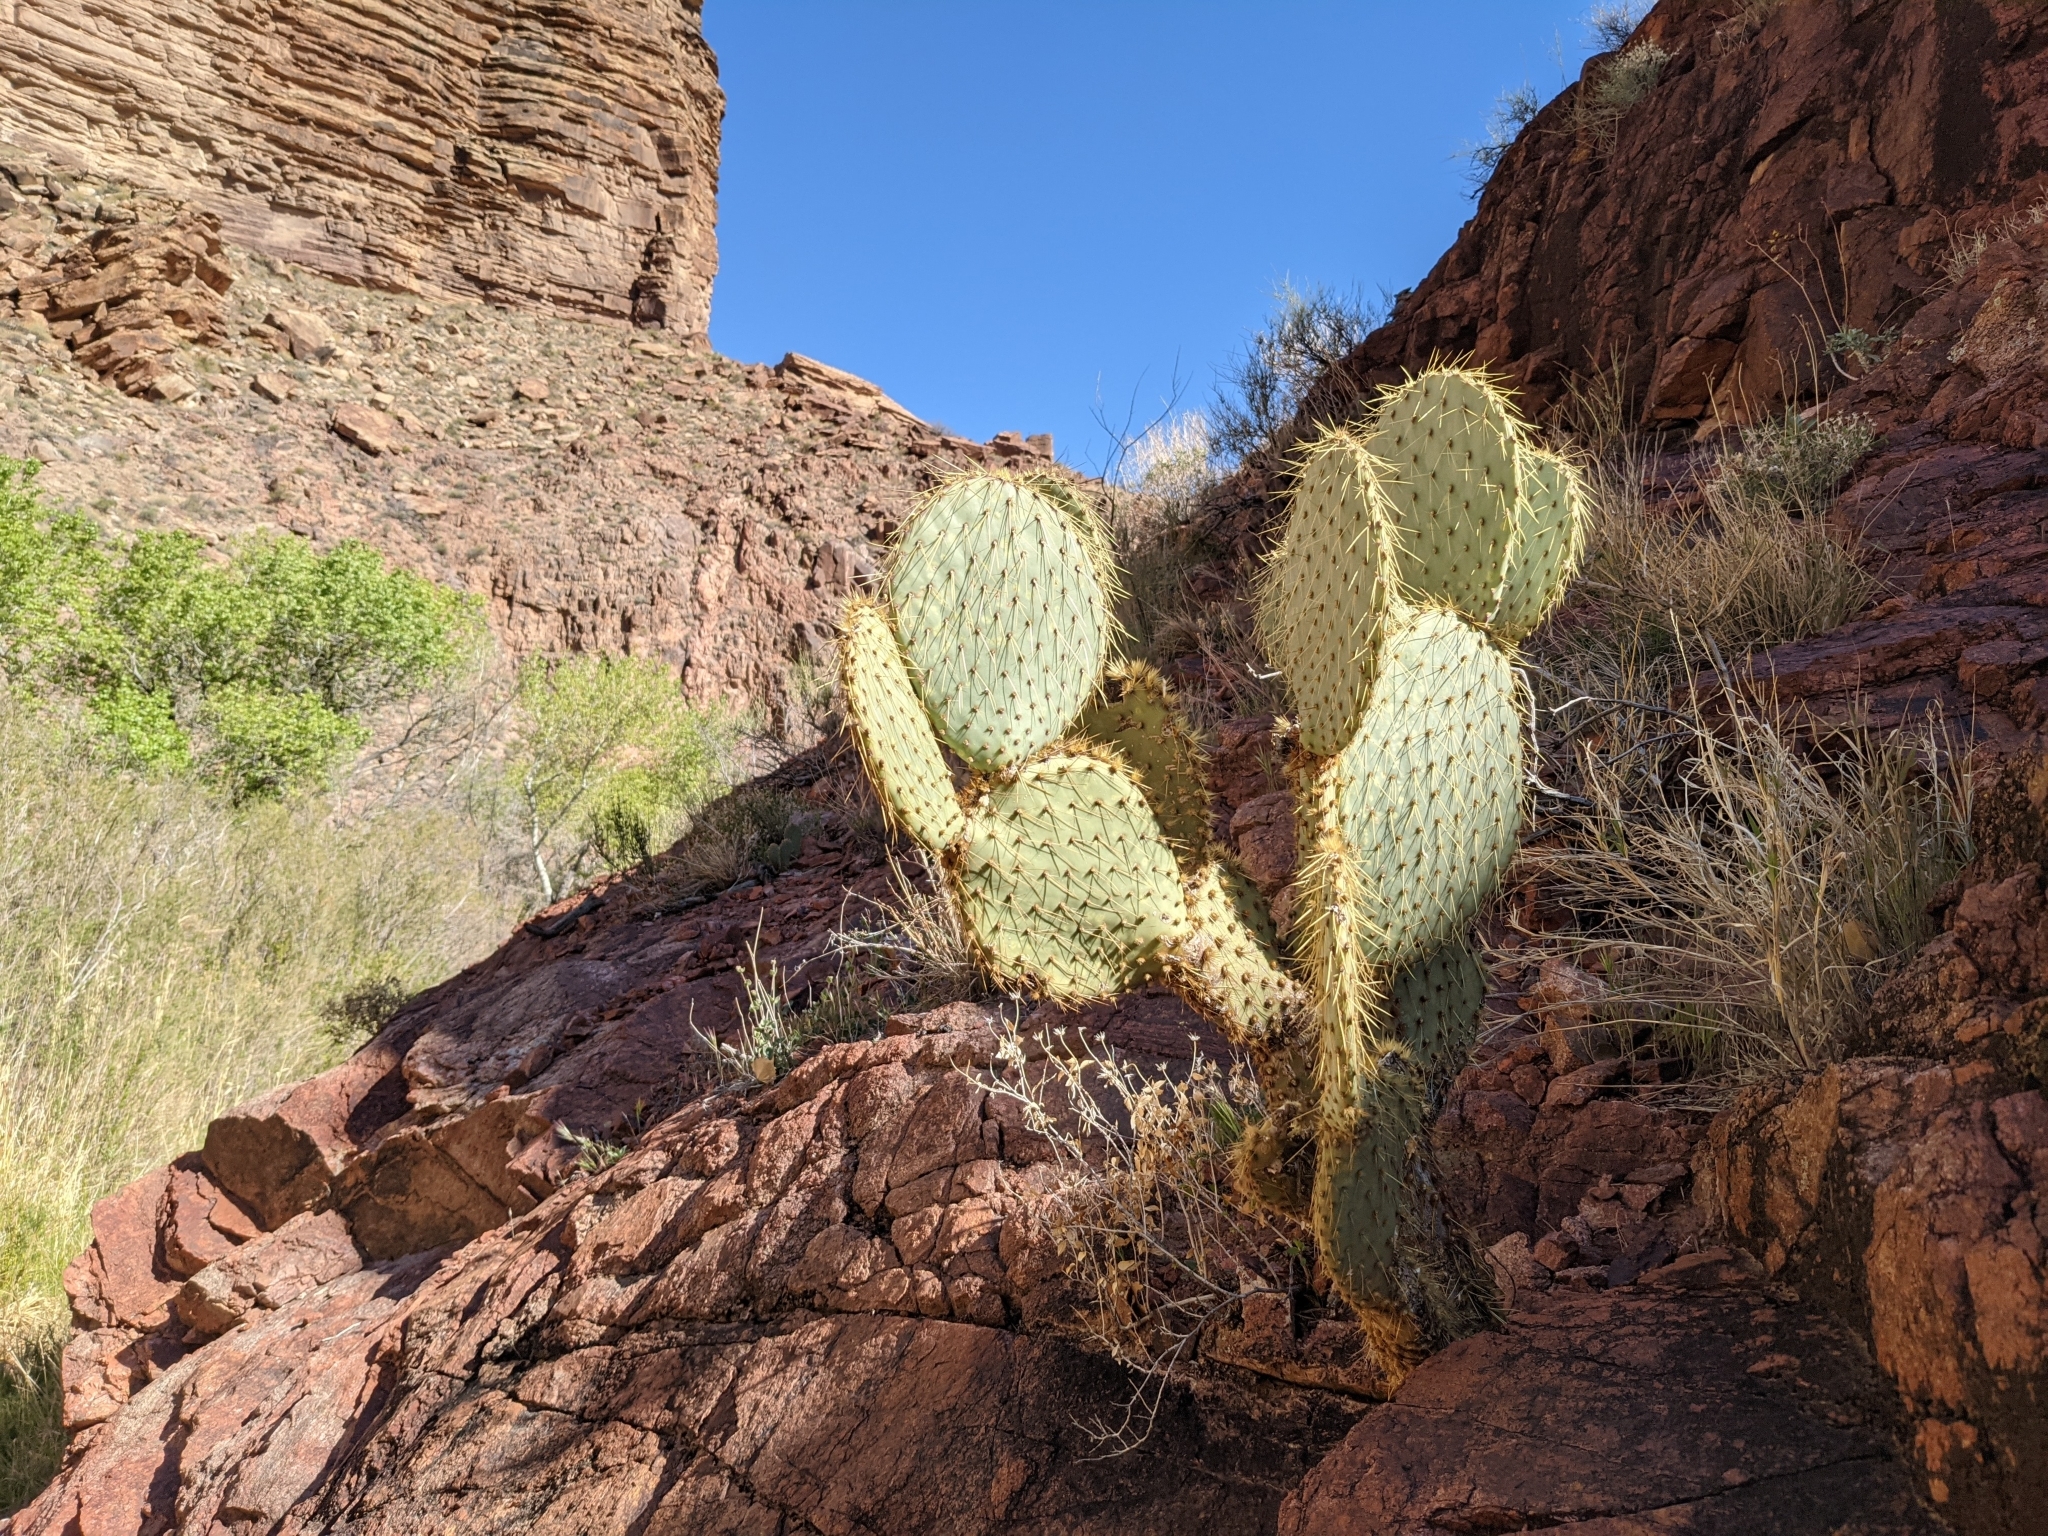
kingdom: Plantae
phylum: Tracheophyta
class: Magnoliopsida
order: Caryophyllales
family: Cactaceae
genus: Opuntia
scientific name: Opuntia chlorotica
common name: Dollar-joint prickly-pear
